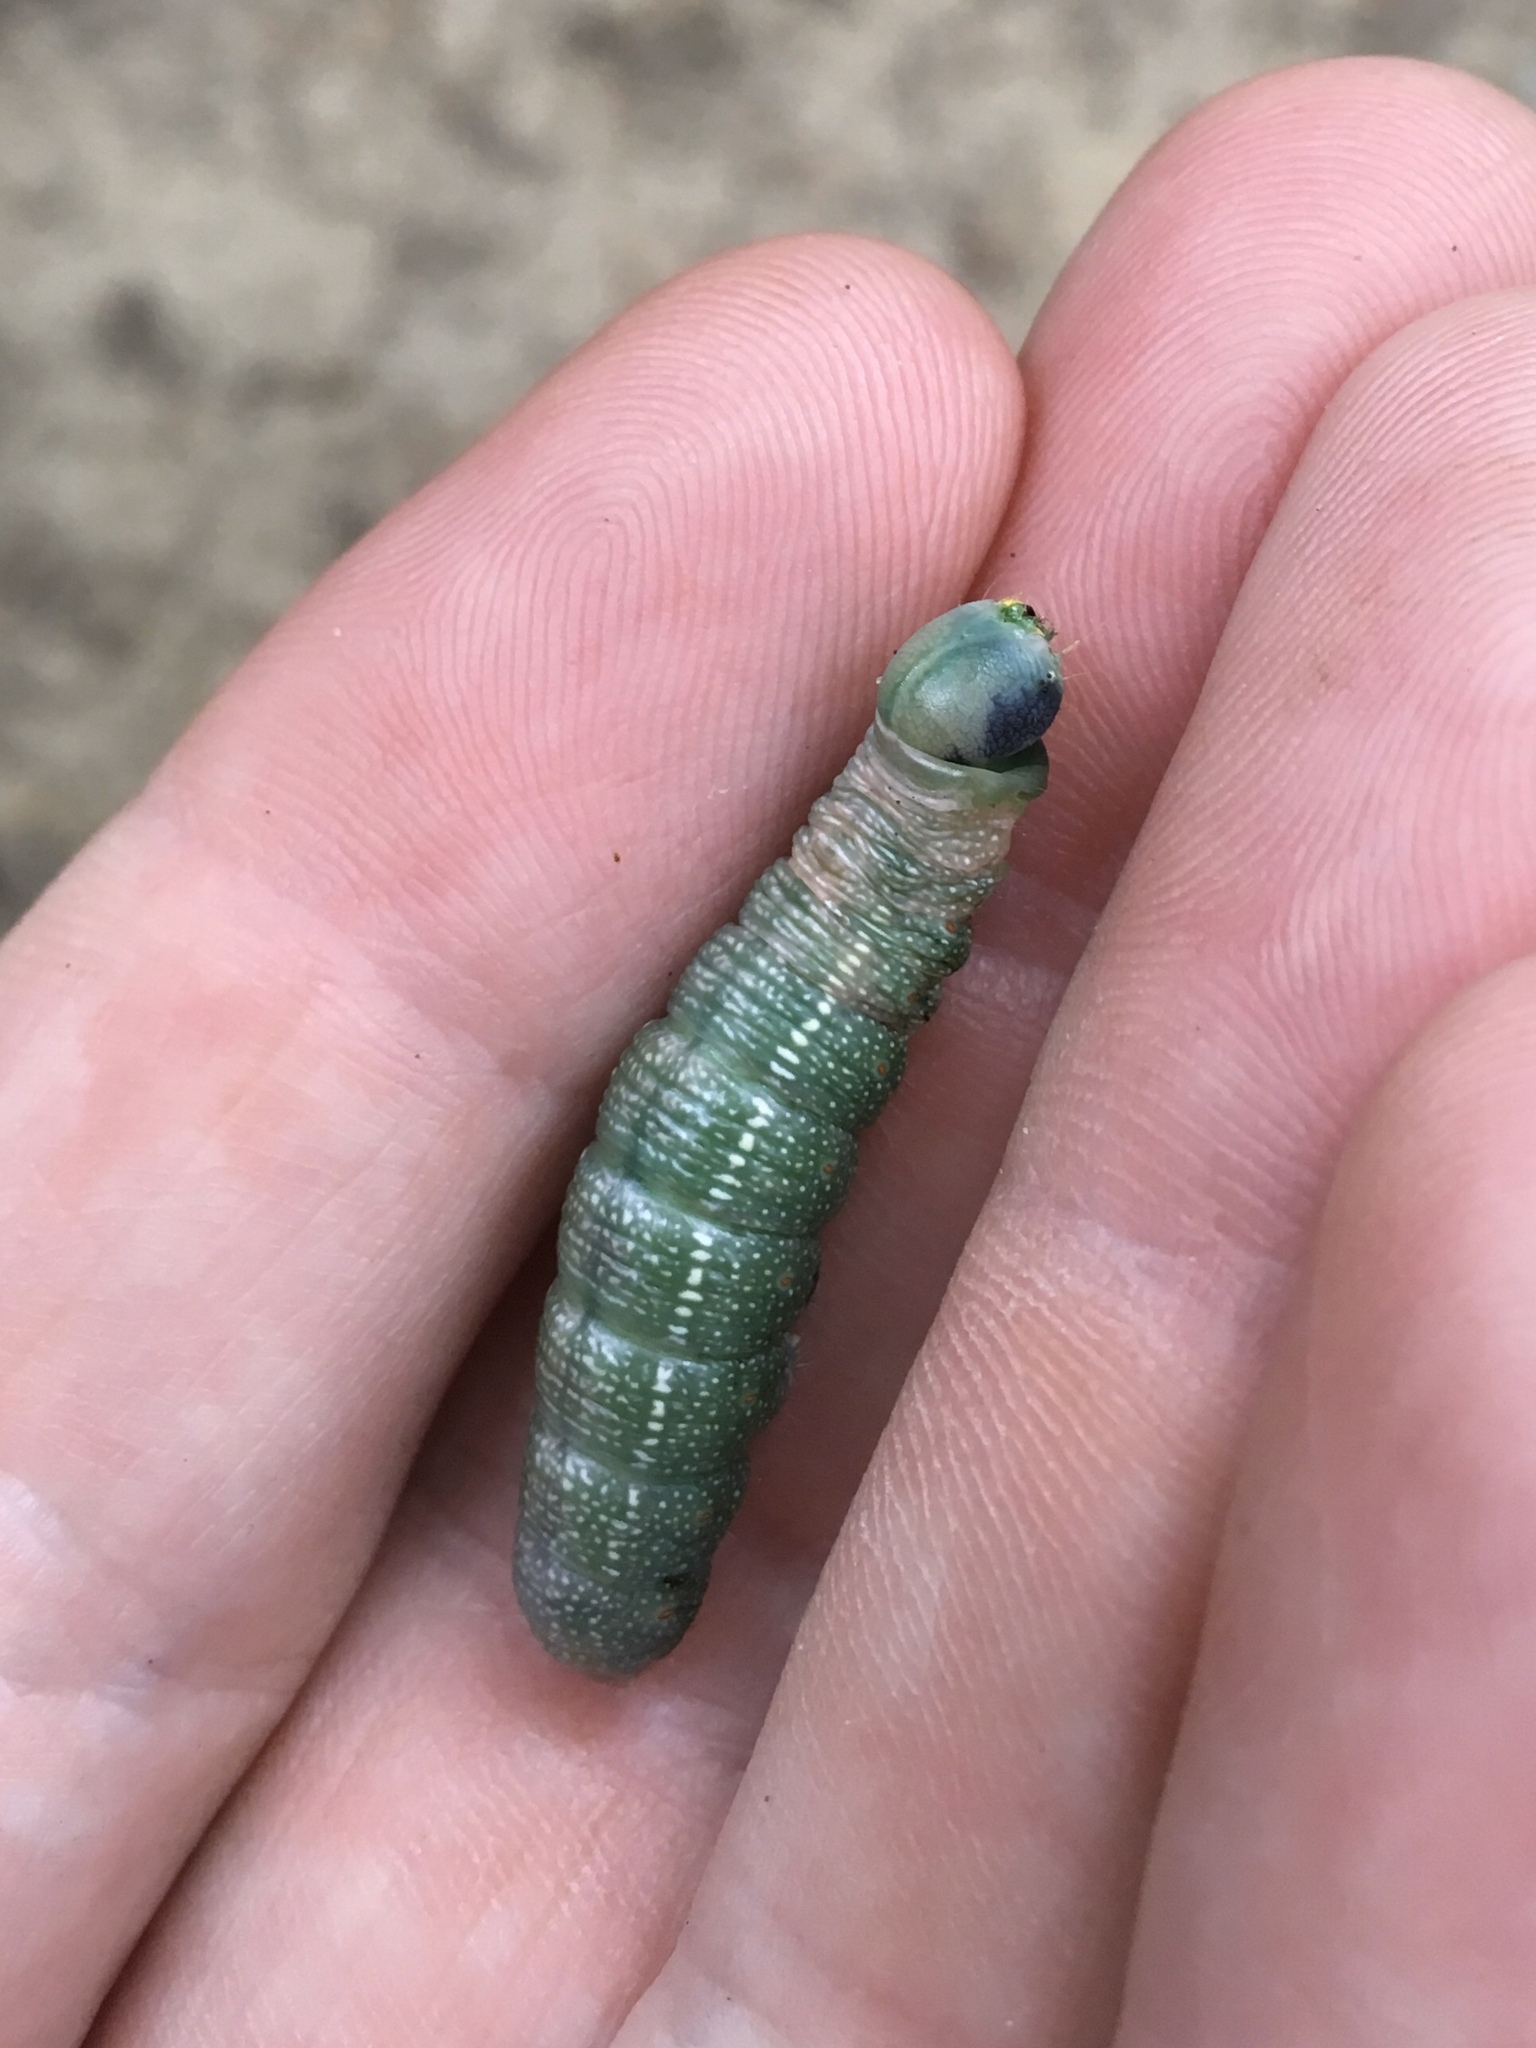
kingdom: Animalia
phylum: Arthropoda
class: Insecta
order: Lepidoptera
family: Notodontidae
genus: Nadata
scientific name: Nadata gibbosa
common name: White-dotted prominent
